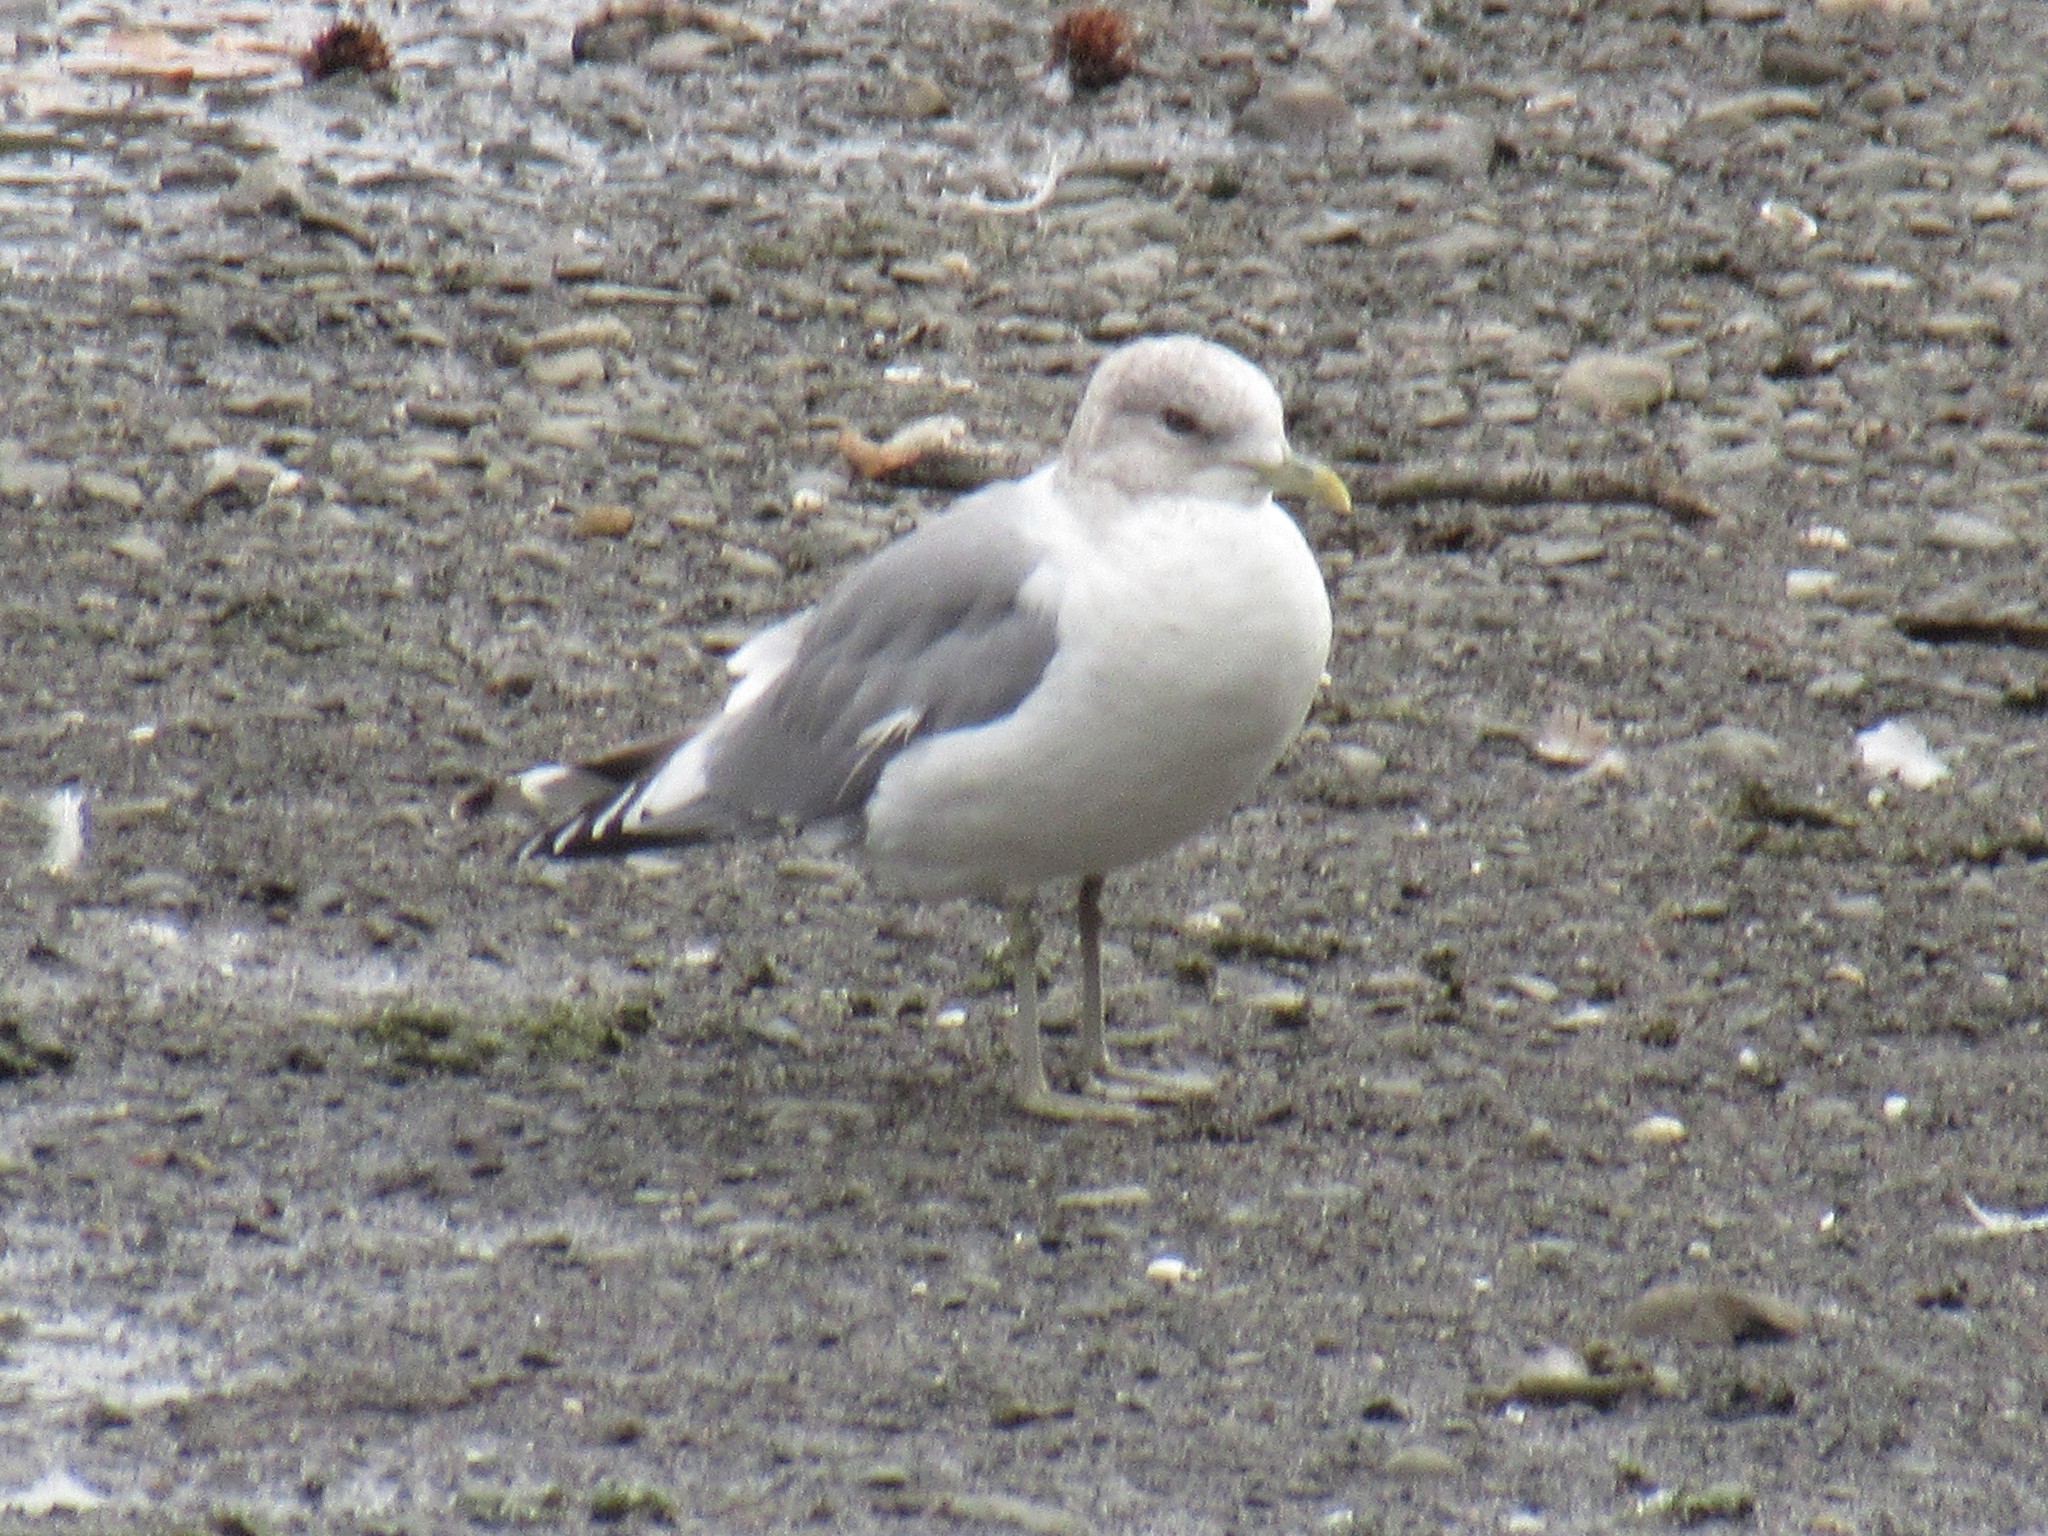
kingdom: Animalia
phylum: Chordata
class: Aves
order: Charadriiformes
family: Laridae
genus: Larus
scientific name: Larus brachyrhynchus
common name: Short-billed gull
